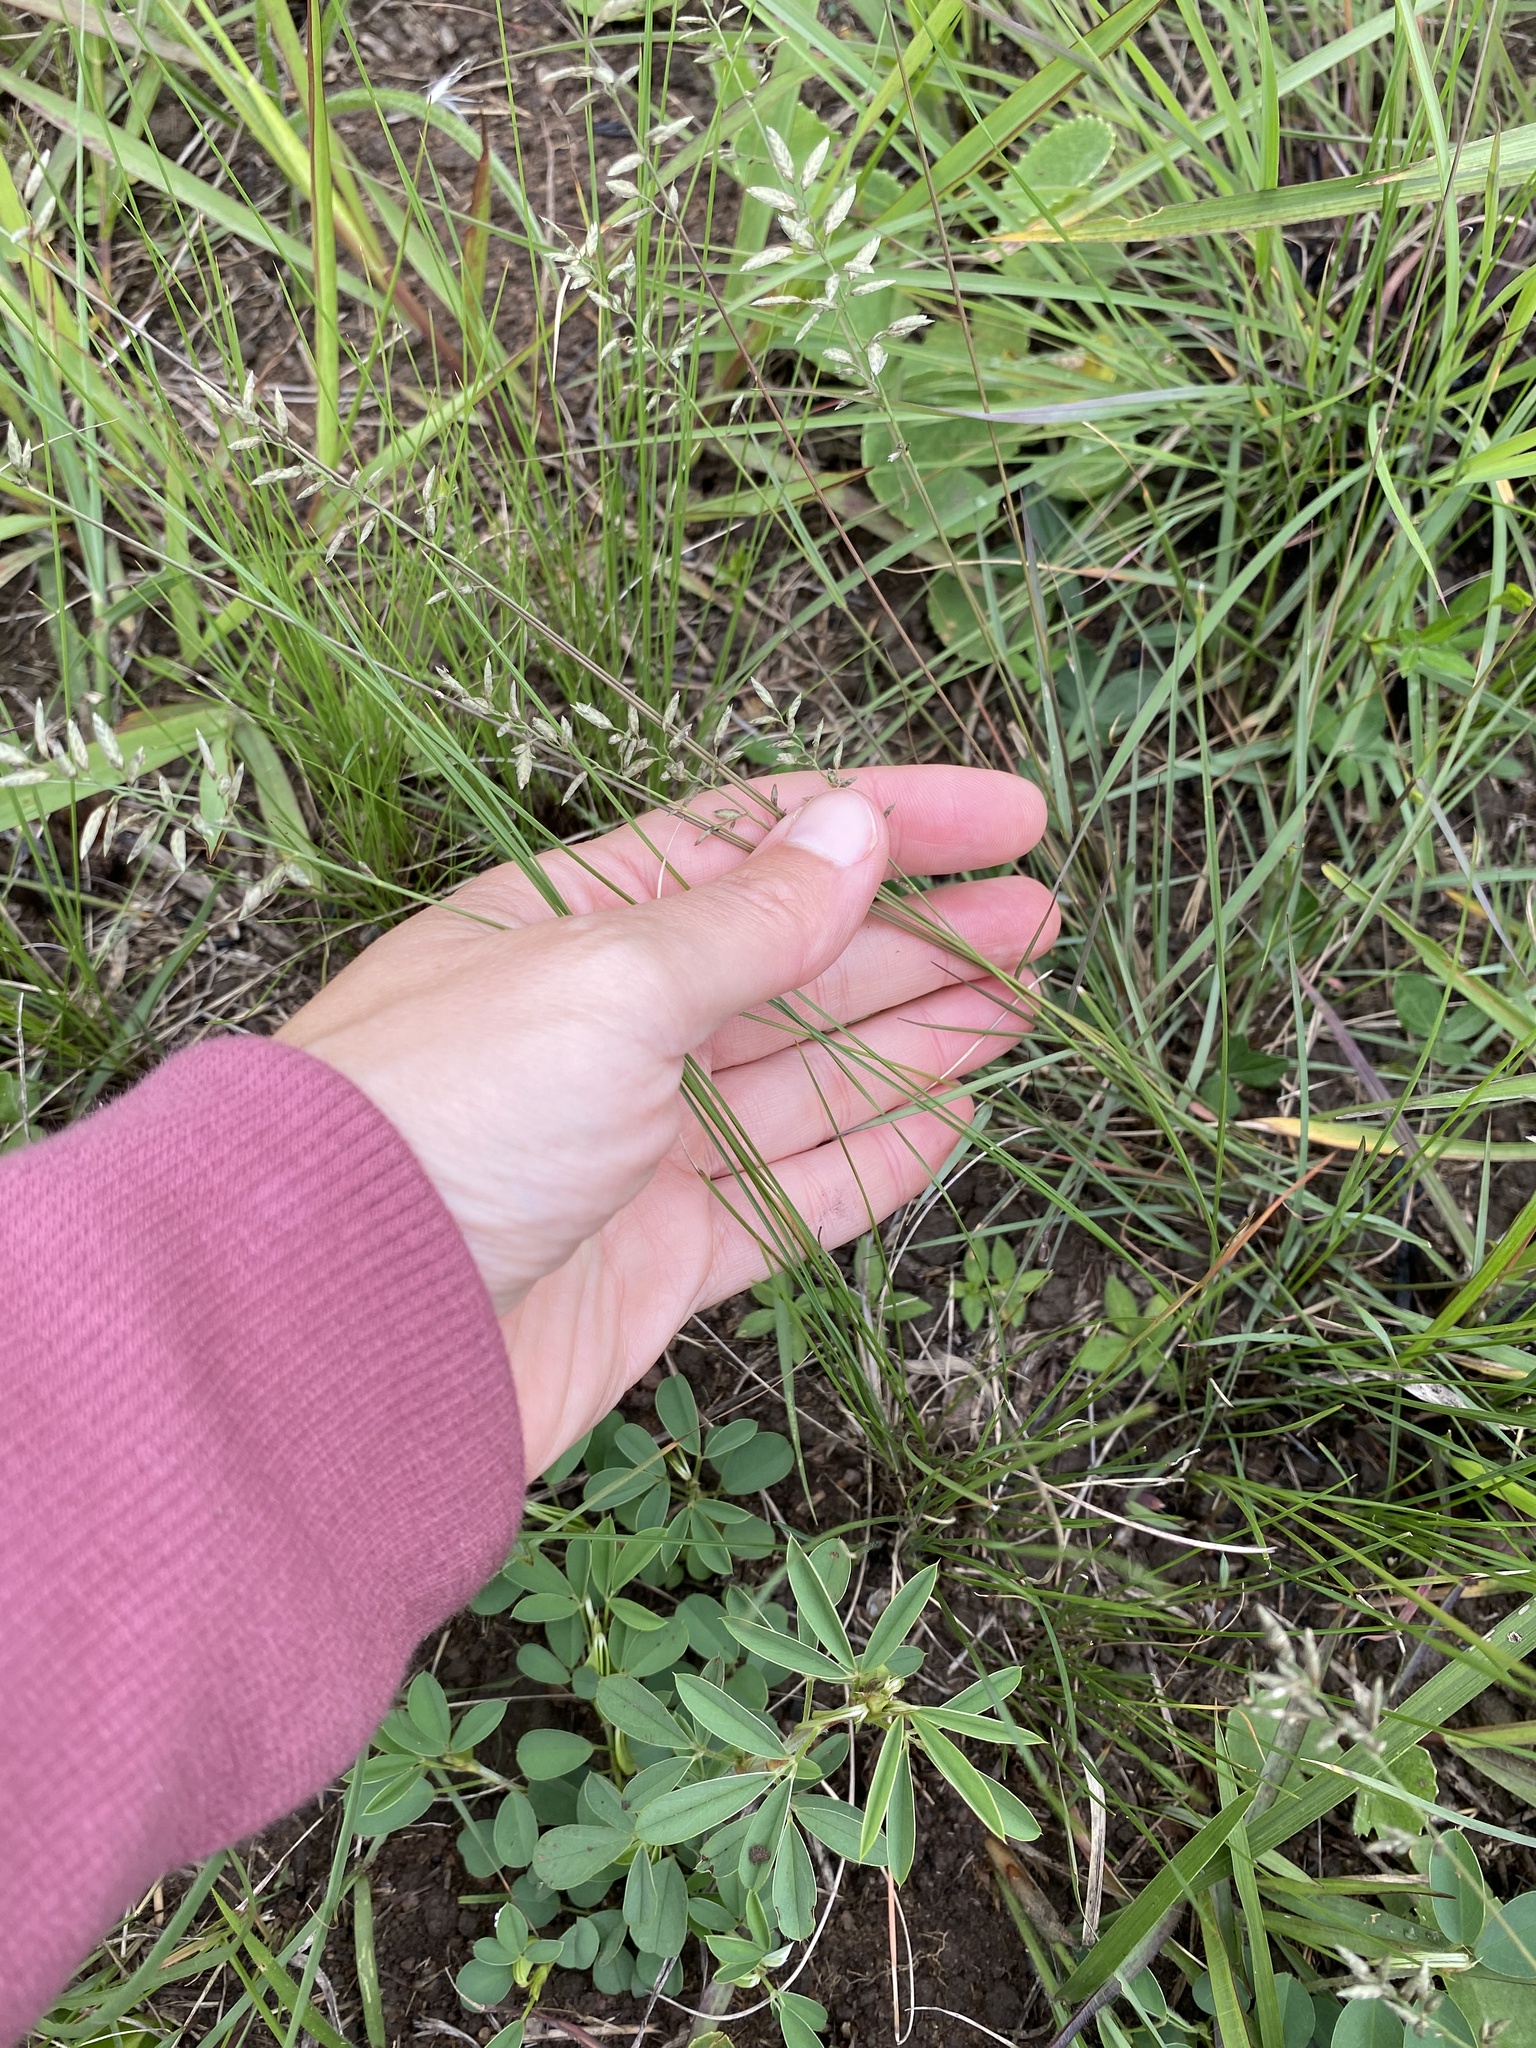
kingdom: Plantae
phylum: Tracheophyta
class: Liliopsida
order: Poales
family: Poaceae
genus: Eragrostis
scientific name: Eragrostis racemosa
